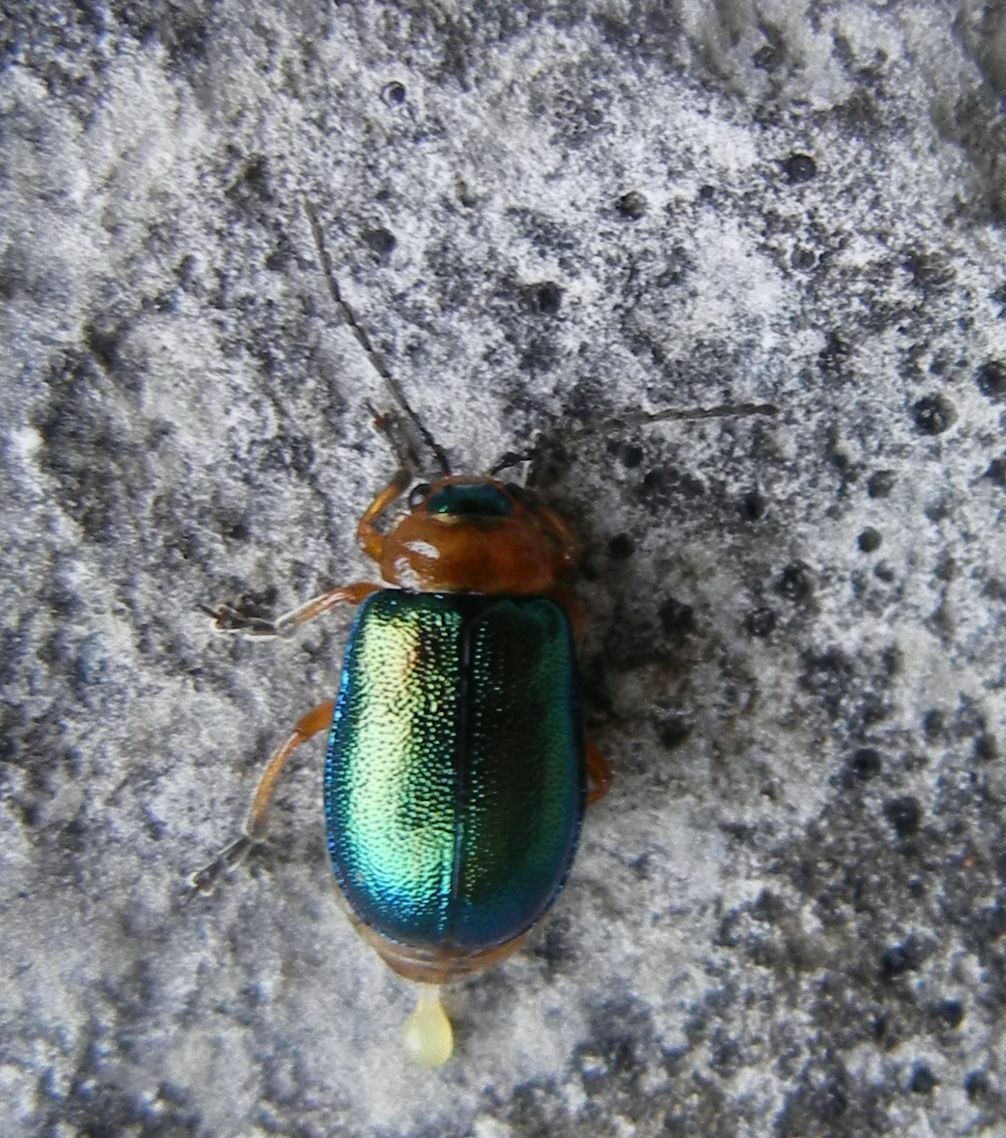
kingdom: Animalia
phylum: Arthropoda
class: Insecta
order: Coleoptera
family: Chrysomelidae
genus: Sermylassa
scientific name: Sermylassa halensis
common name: Leaf beetle
